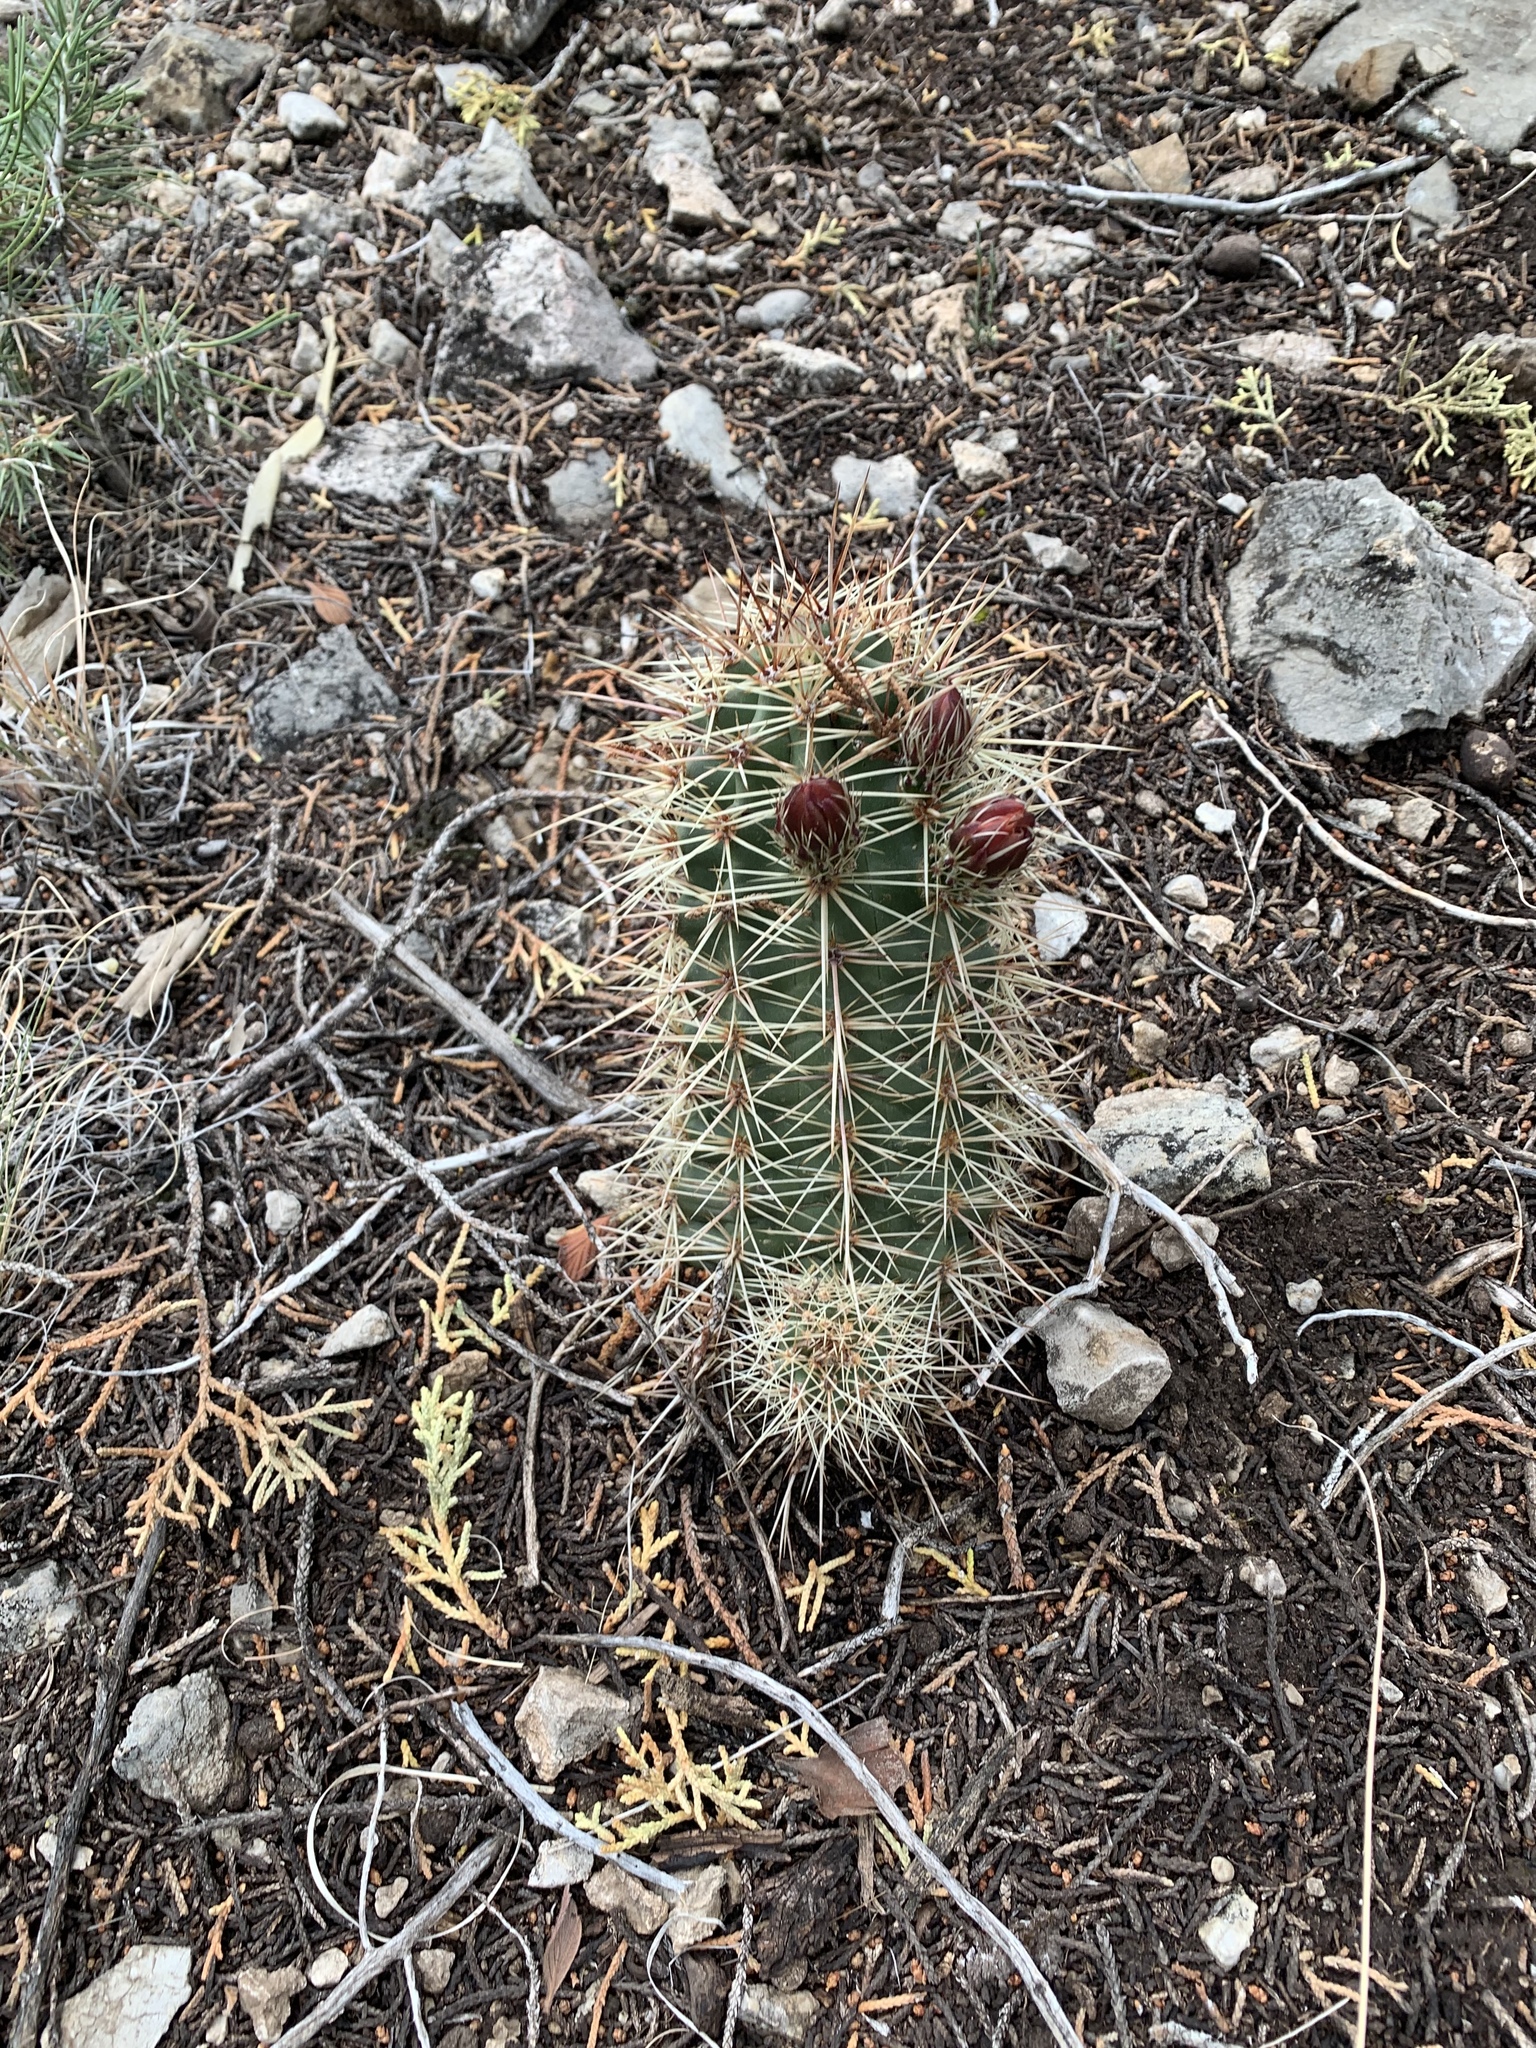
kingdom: Plantae
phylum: Tracheophyta
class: Magnoliopsida
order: Caryophyllales
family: Cactaceae
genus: Echinocereus
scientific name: Echinocereus coccineus
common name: Scarlet hedgehog cactus
